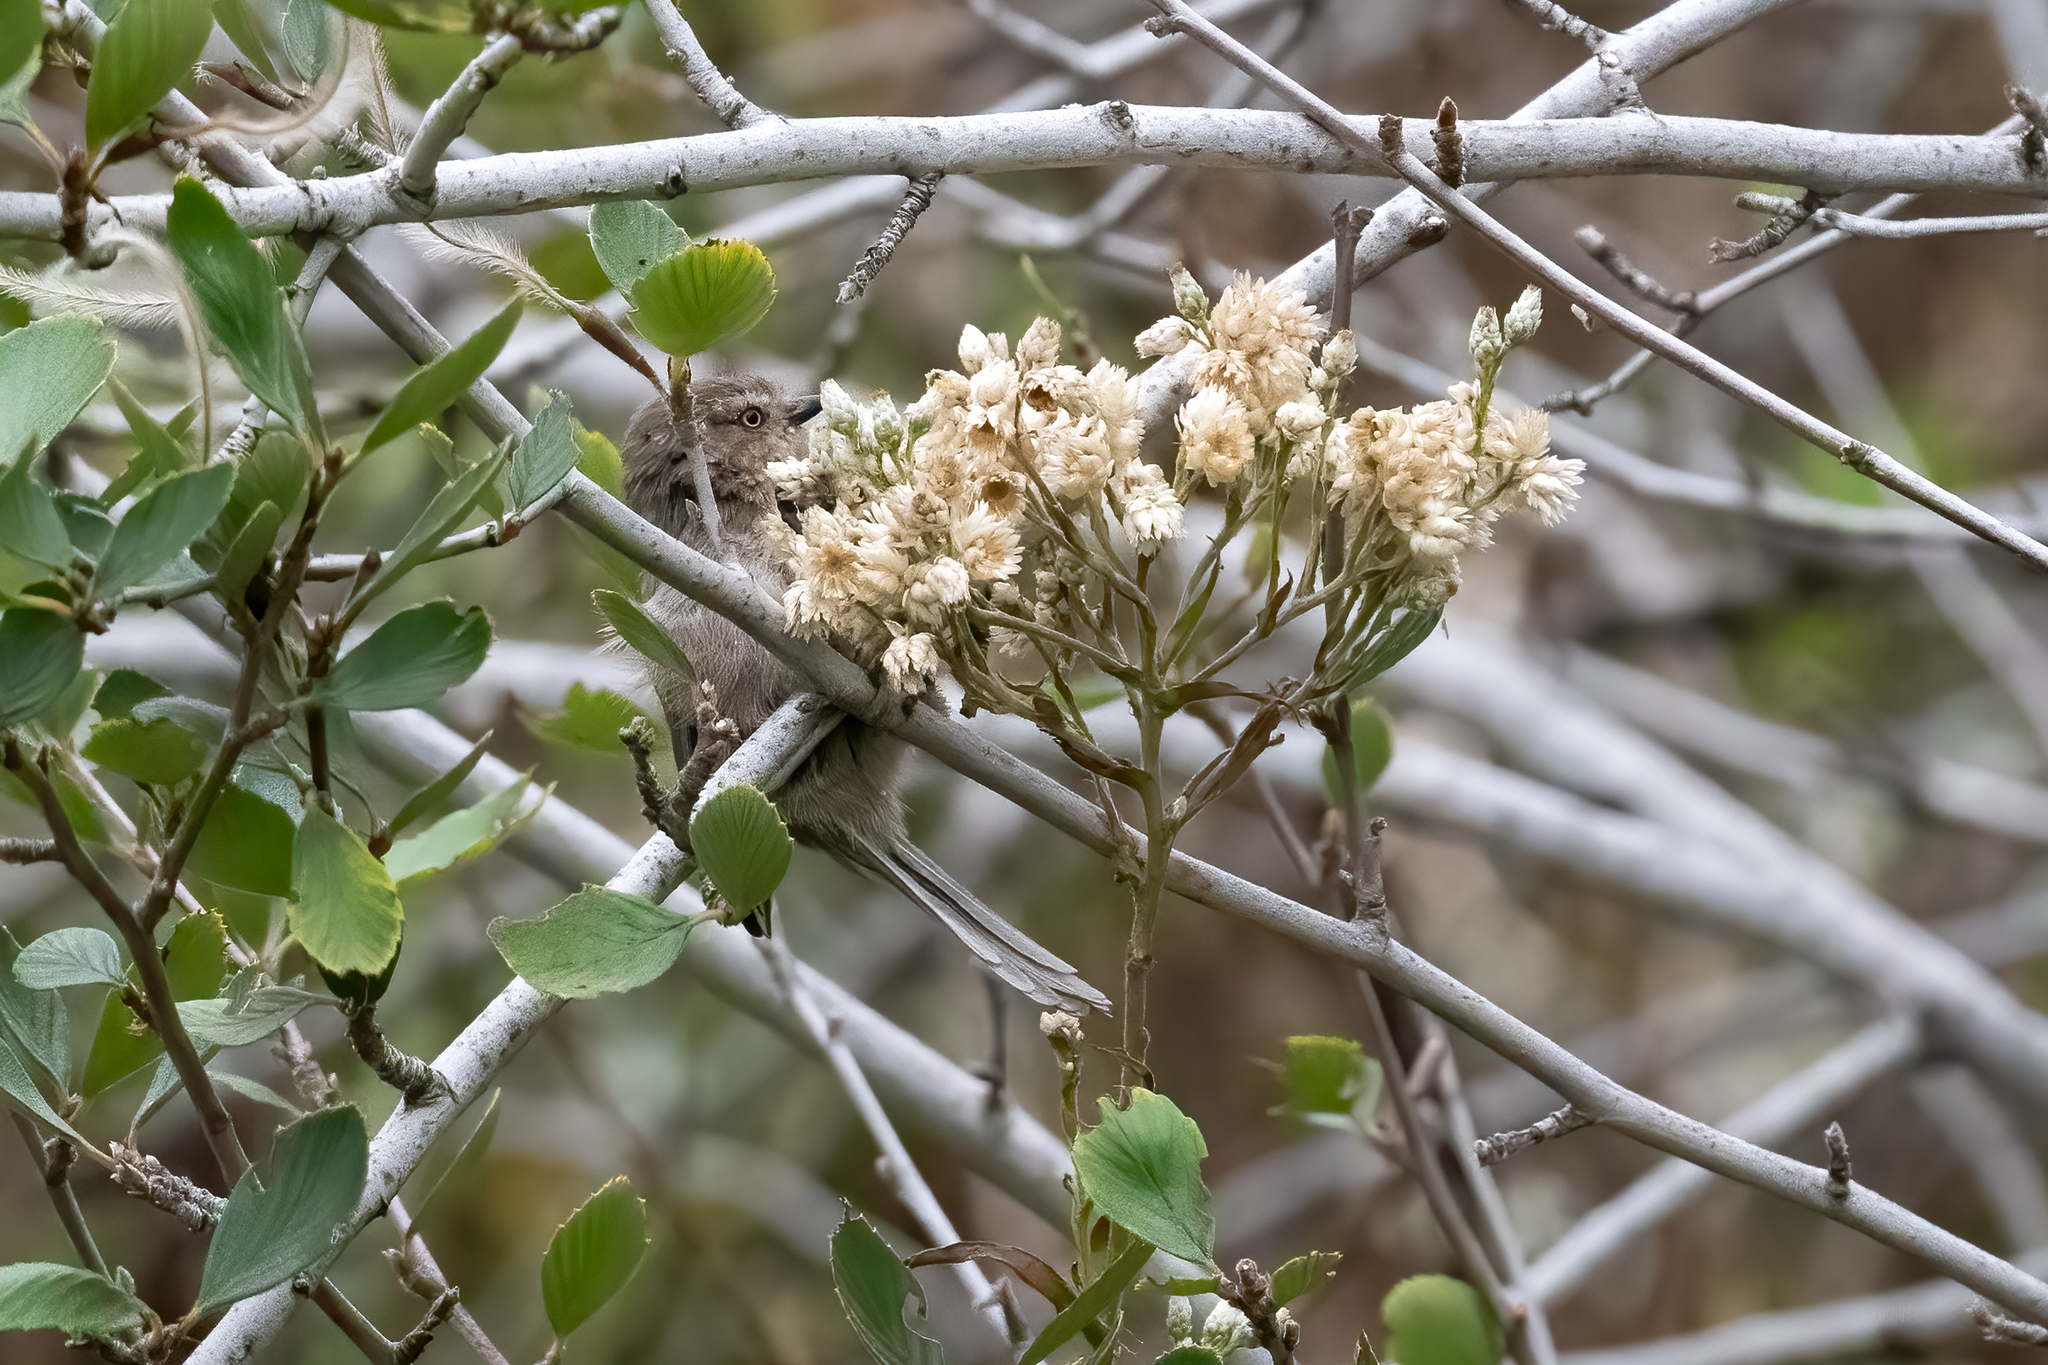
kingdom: Animalia
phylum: Chordata
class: Aves
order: Passeriformes
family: Aegithalidae
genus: Psaltriparus
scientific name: Psaltriparus minimus
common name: American bushtit
